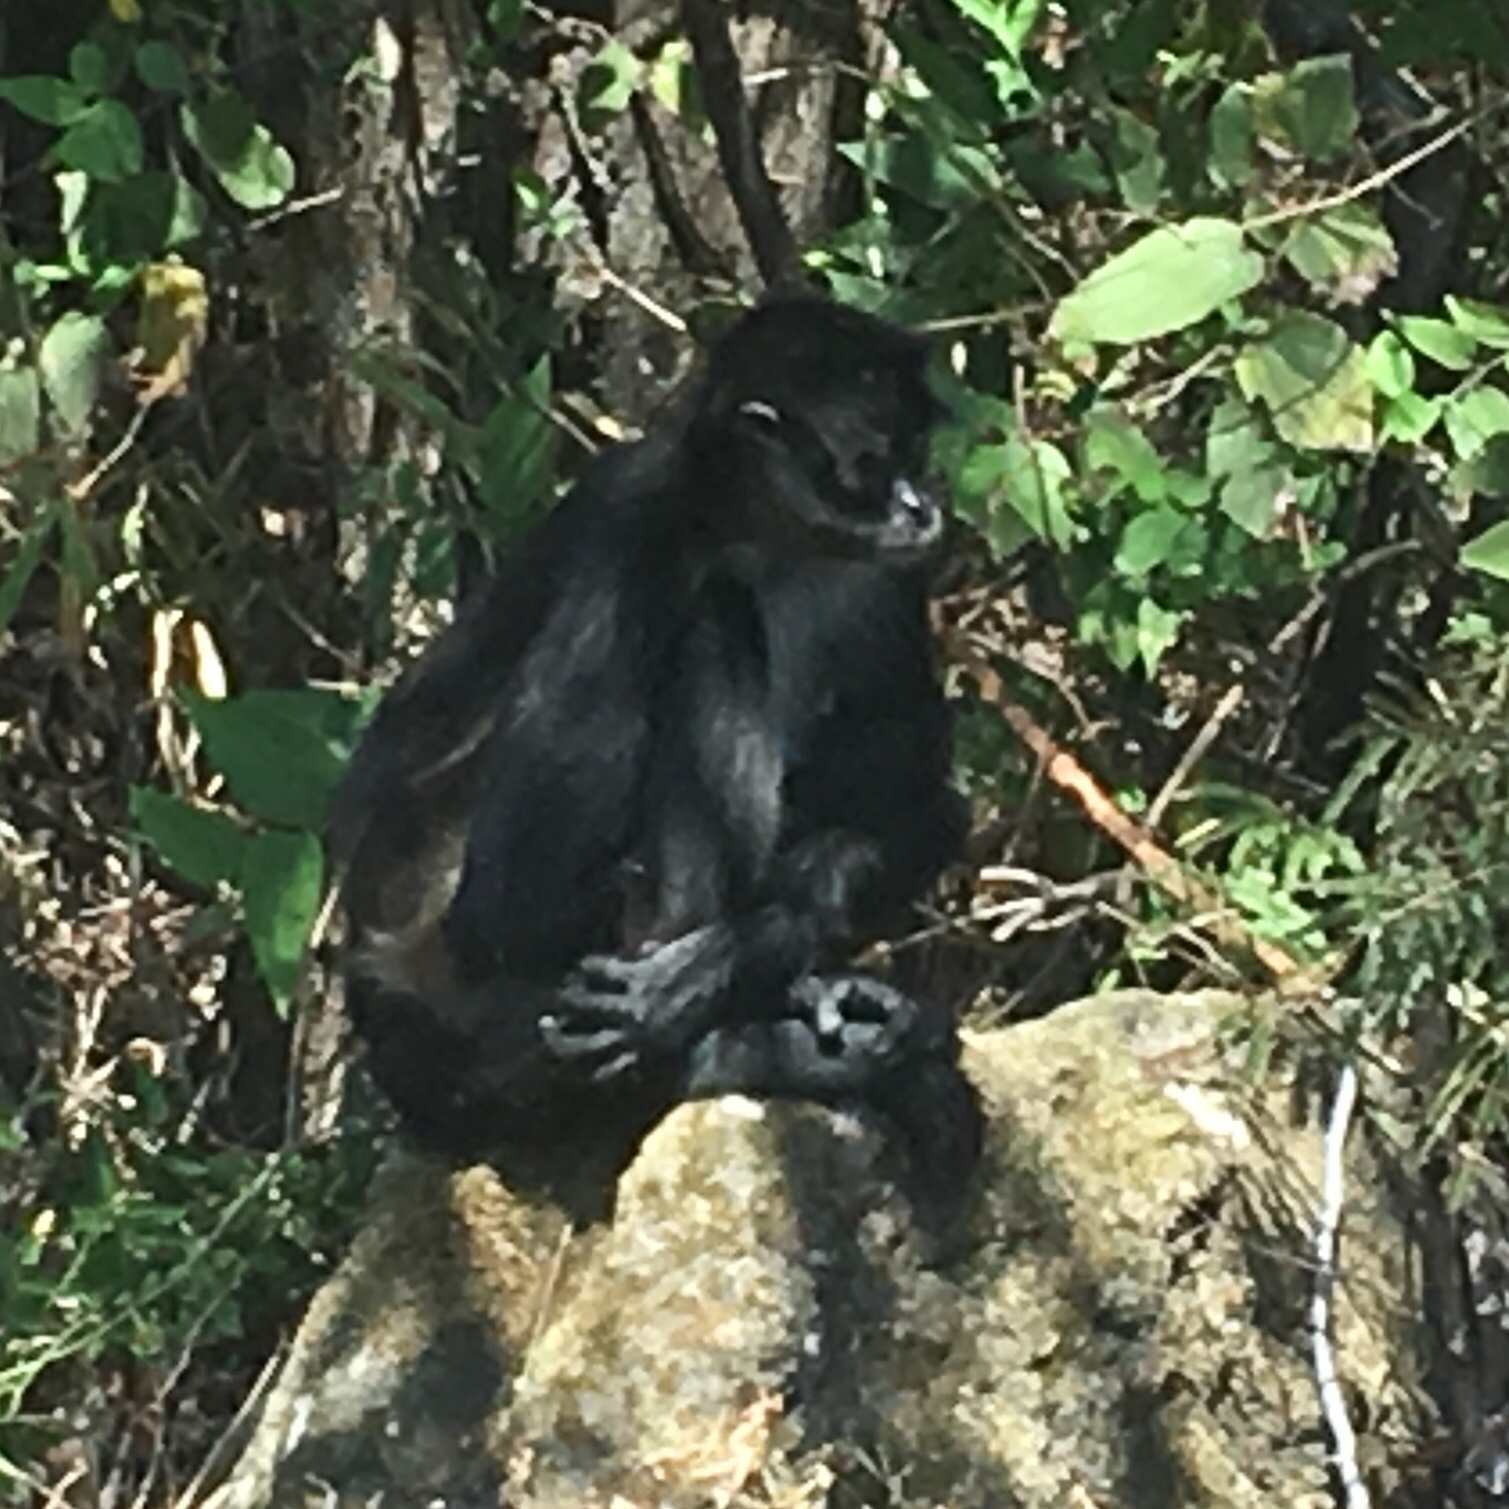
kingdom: Animalia
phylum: Chordata
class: Mammalia
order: Primates
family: Atelidae
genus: Ateles
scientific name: Ateles geoffroyi
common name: Black-handed spider monkey
